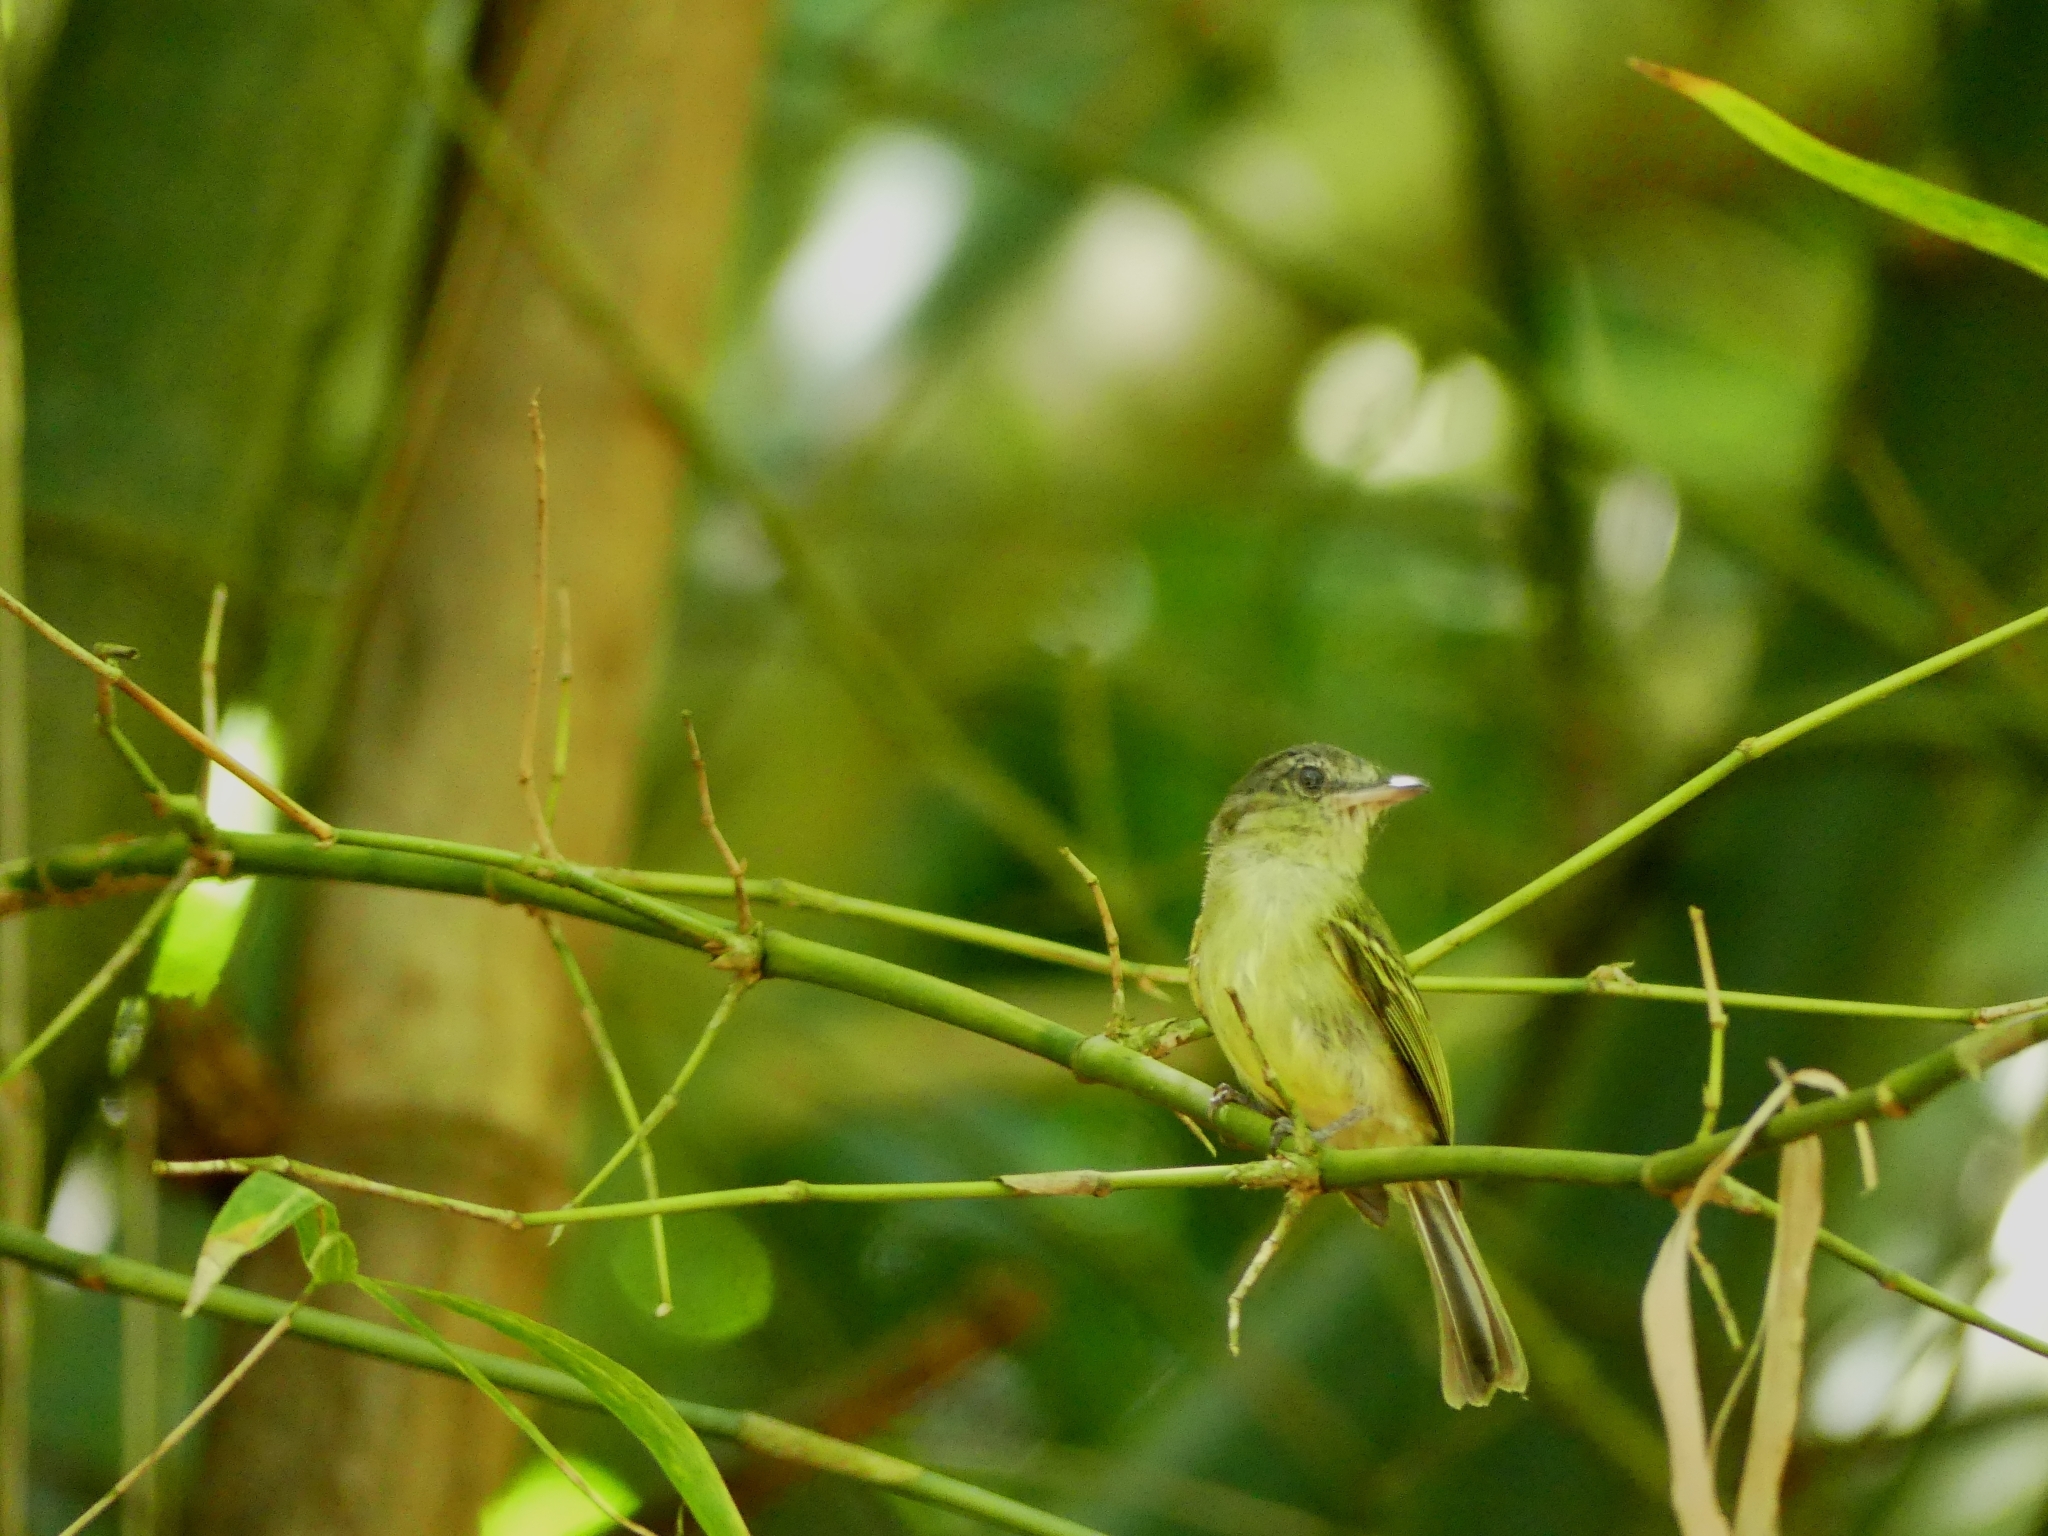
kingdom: Animalia
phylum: Chordata
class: Aves
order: Passeriformes
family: Tyrannidae
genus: Tolmomyias
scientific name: Tolmomyias sulphurescens
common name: Yellow-olive flycatcher
